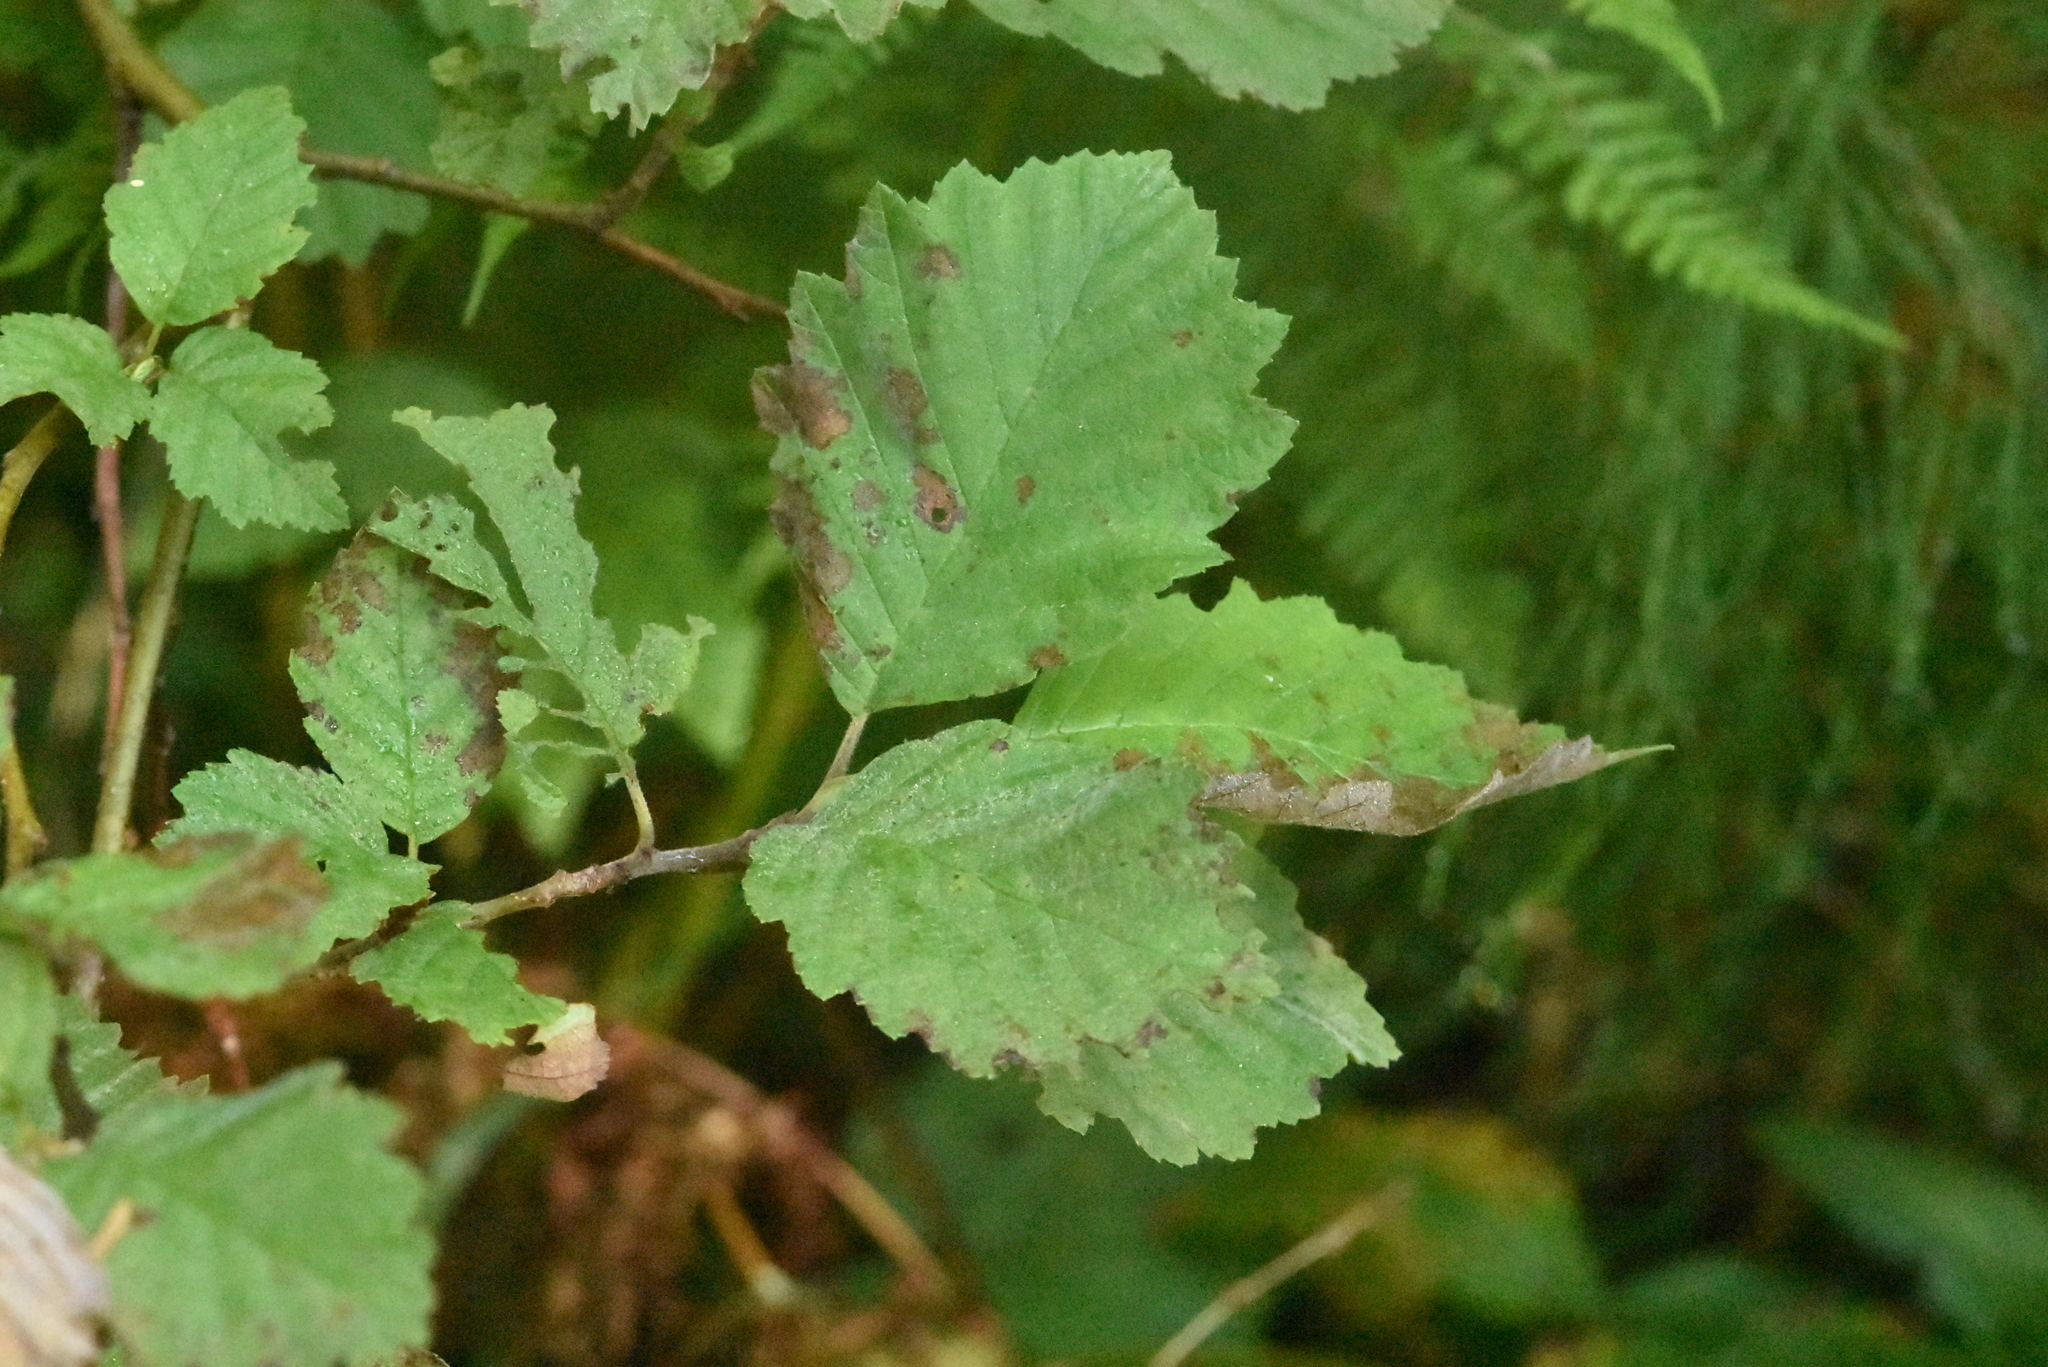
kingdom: Plantae
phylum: Tracheophyta
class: Magnoliopsida
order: Fagales
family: Betulaceae
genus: Alnus
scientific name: Alnus incana
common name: Grey alder
